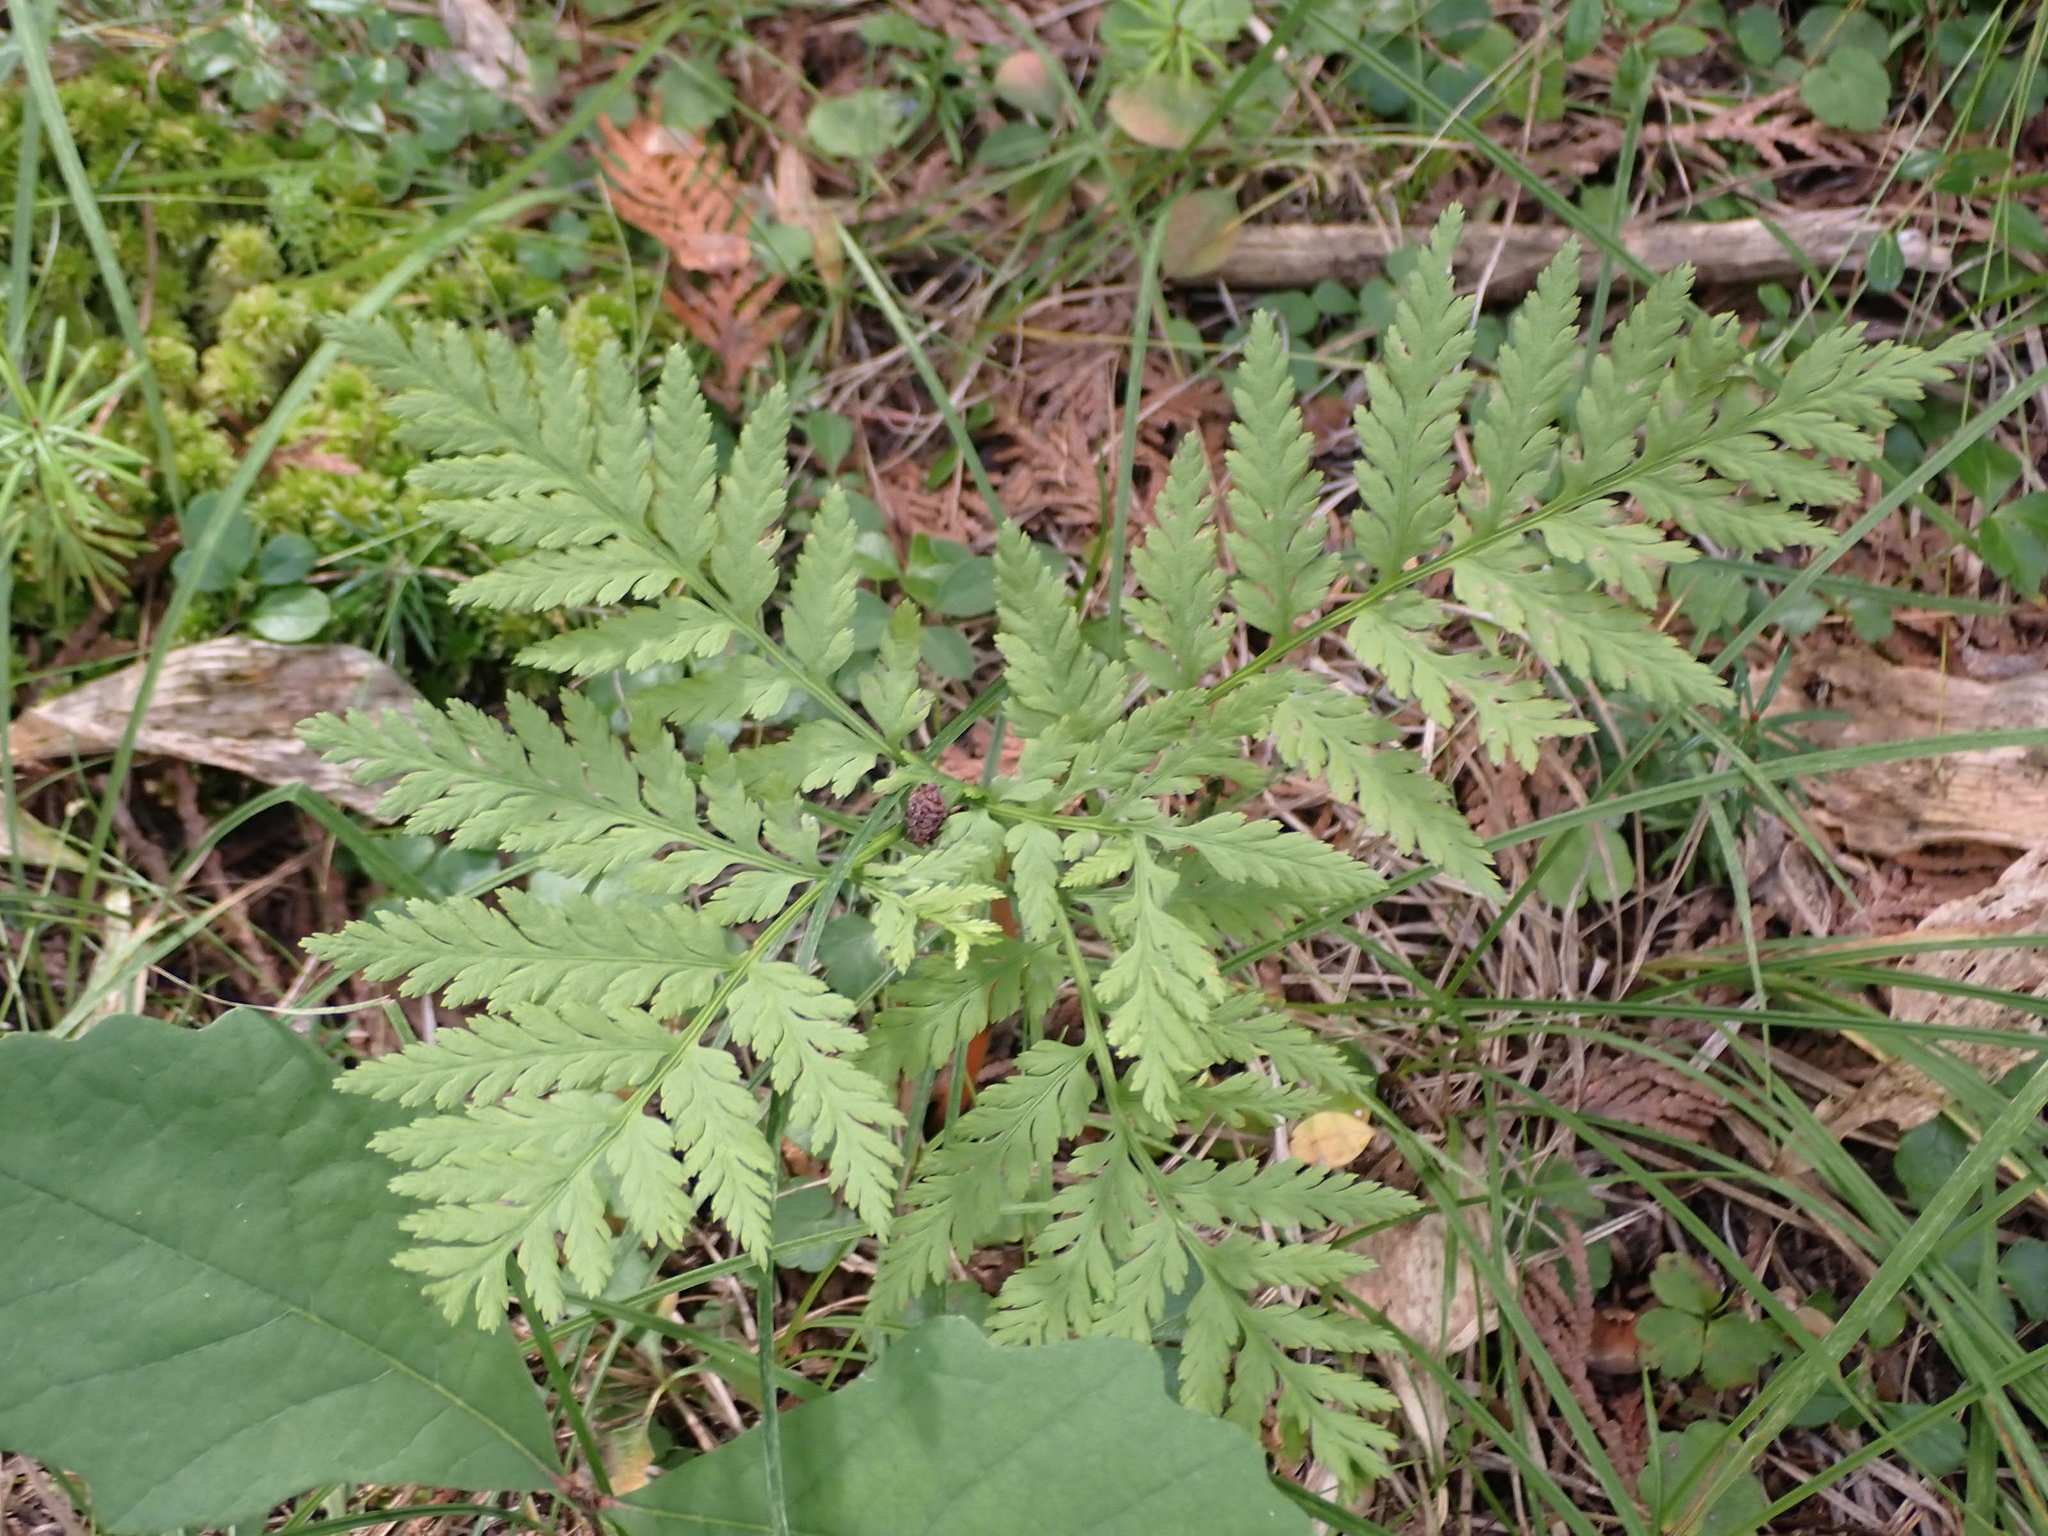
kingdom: Plantae
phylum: Tracheophyta
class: Polypodiopsida
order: Ophioglossales
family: Ophioglossaceae
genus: Botrypus
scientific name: Botrypus virginianus
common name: Common grapefern
